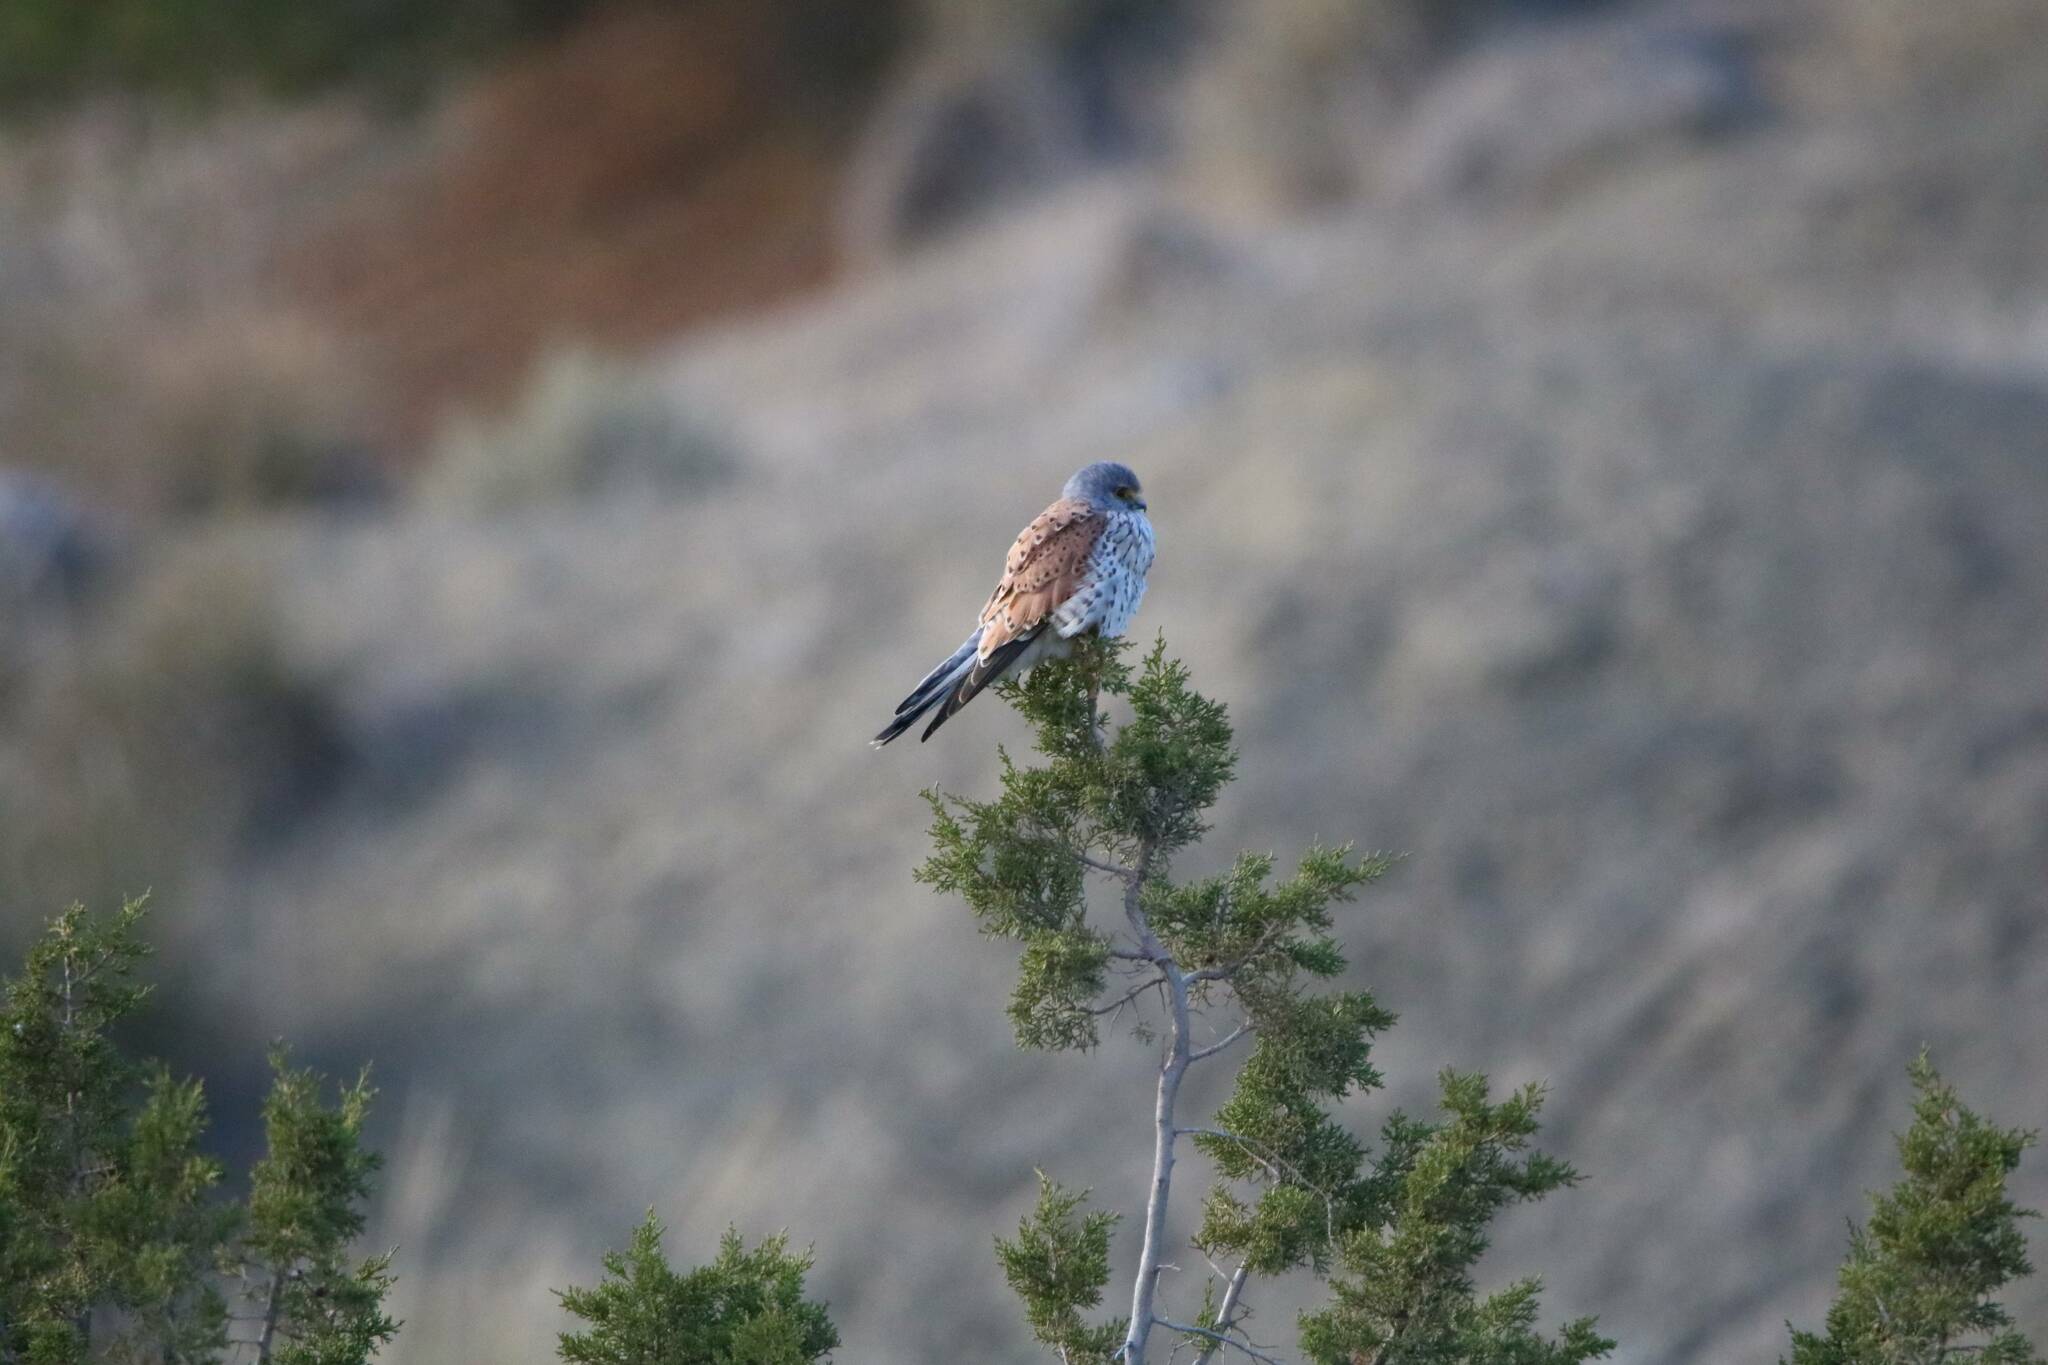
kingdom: Animalia
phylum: Chordata
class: Aves
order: Falconiformes
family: Falconidae
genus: Falco
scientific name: Falco tinnunculus
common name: Common kestrel
